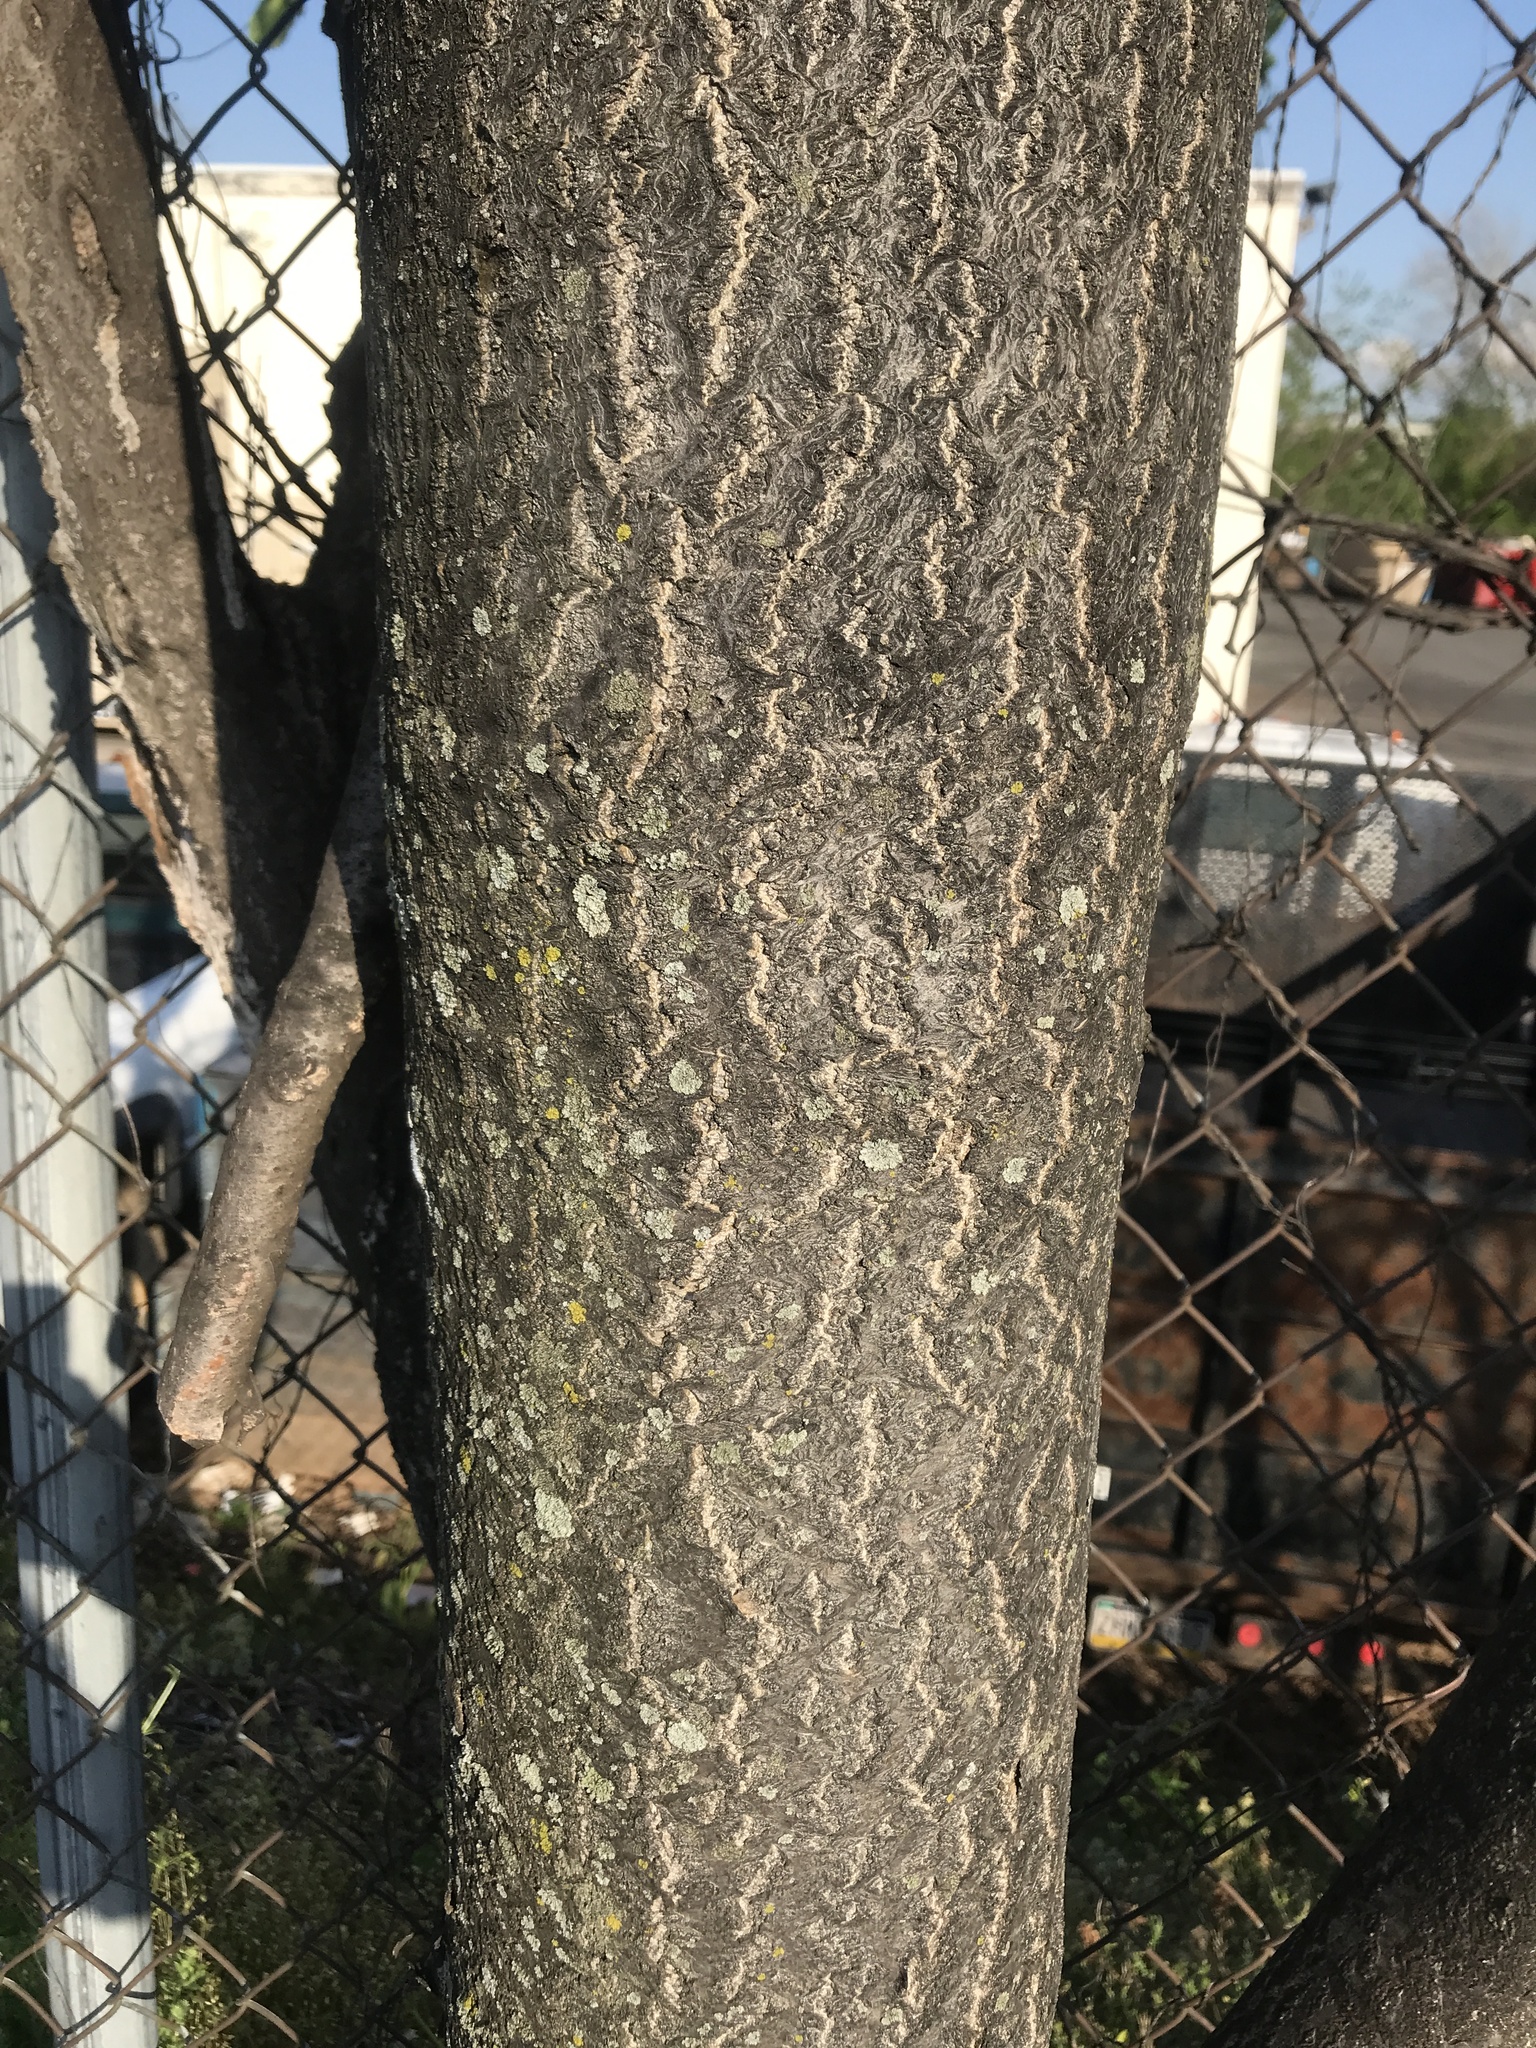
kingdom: Plantae
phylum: Tracheophyta
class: Magnoliopsida
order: Sapindales
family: Simaroubaceae
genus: Ailanthus
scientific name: Ailanthus altissima
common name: Tree-of-heaven
